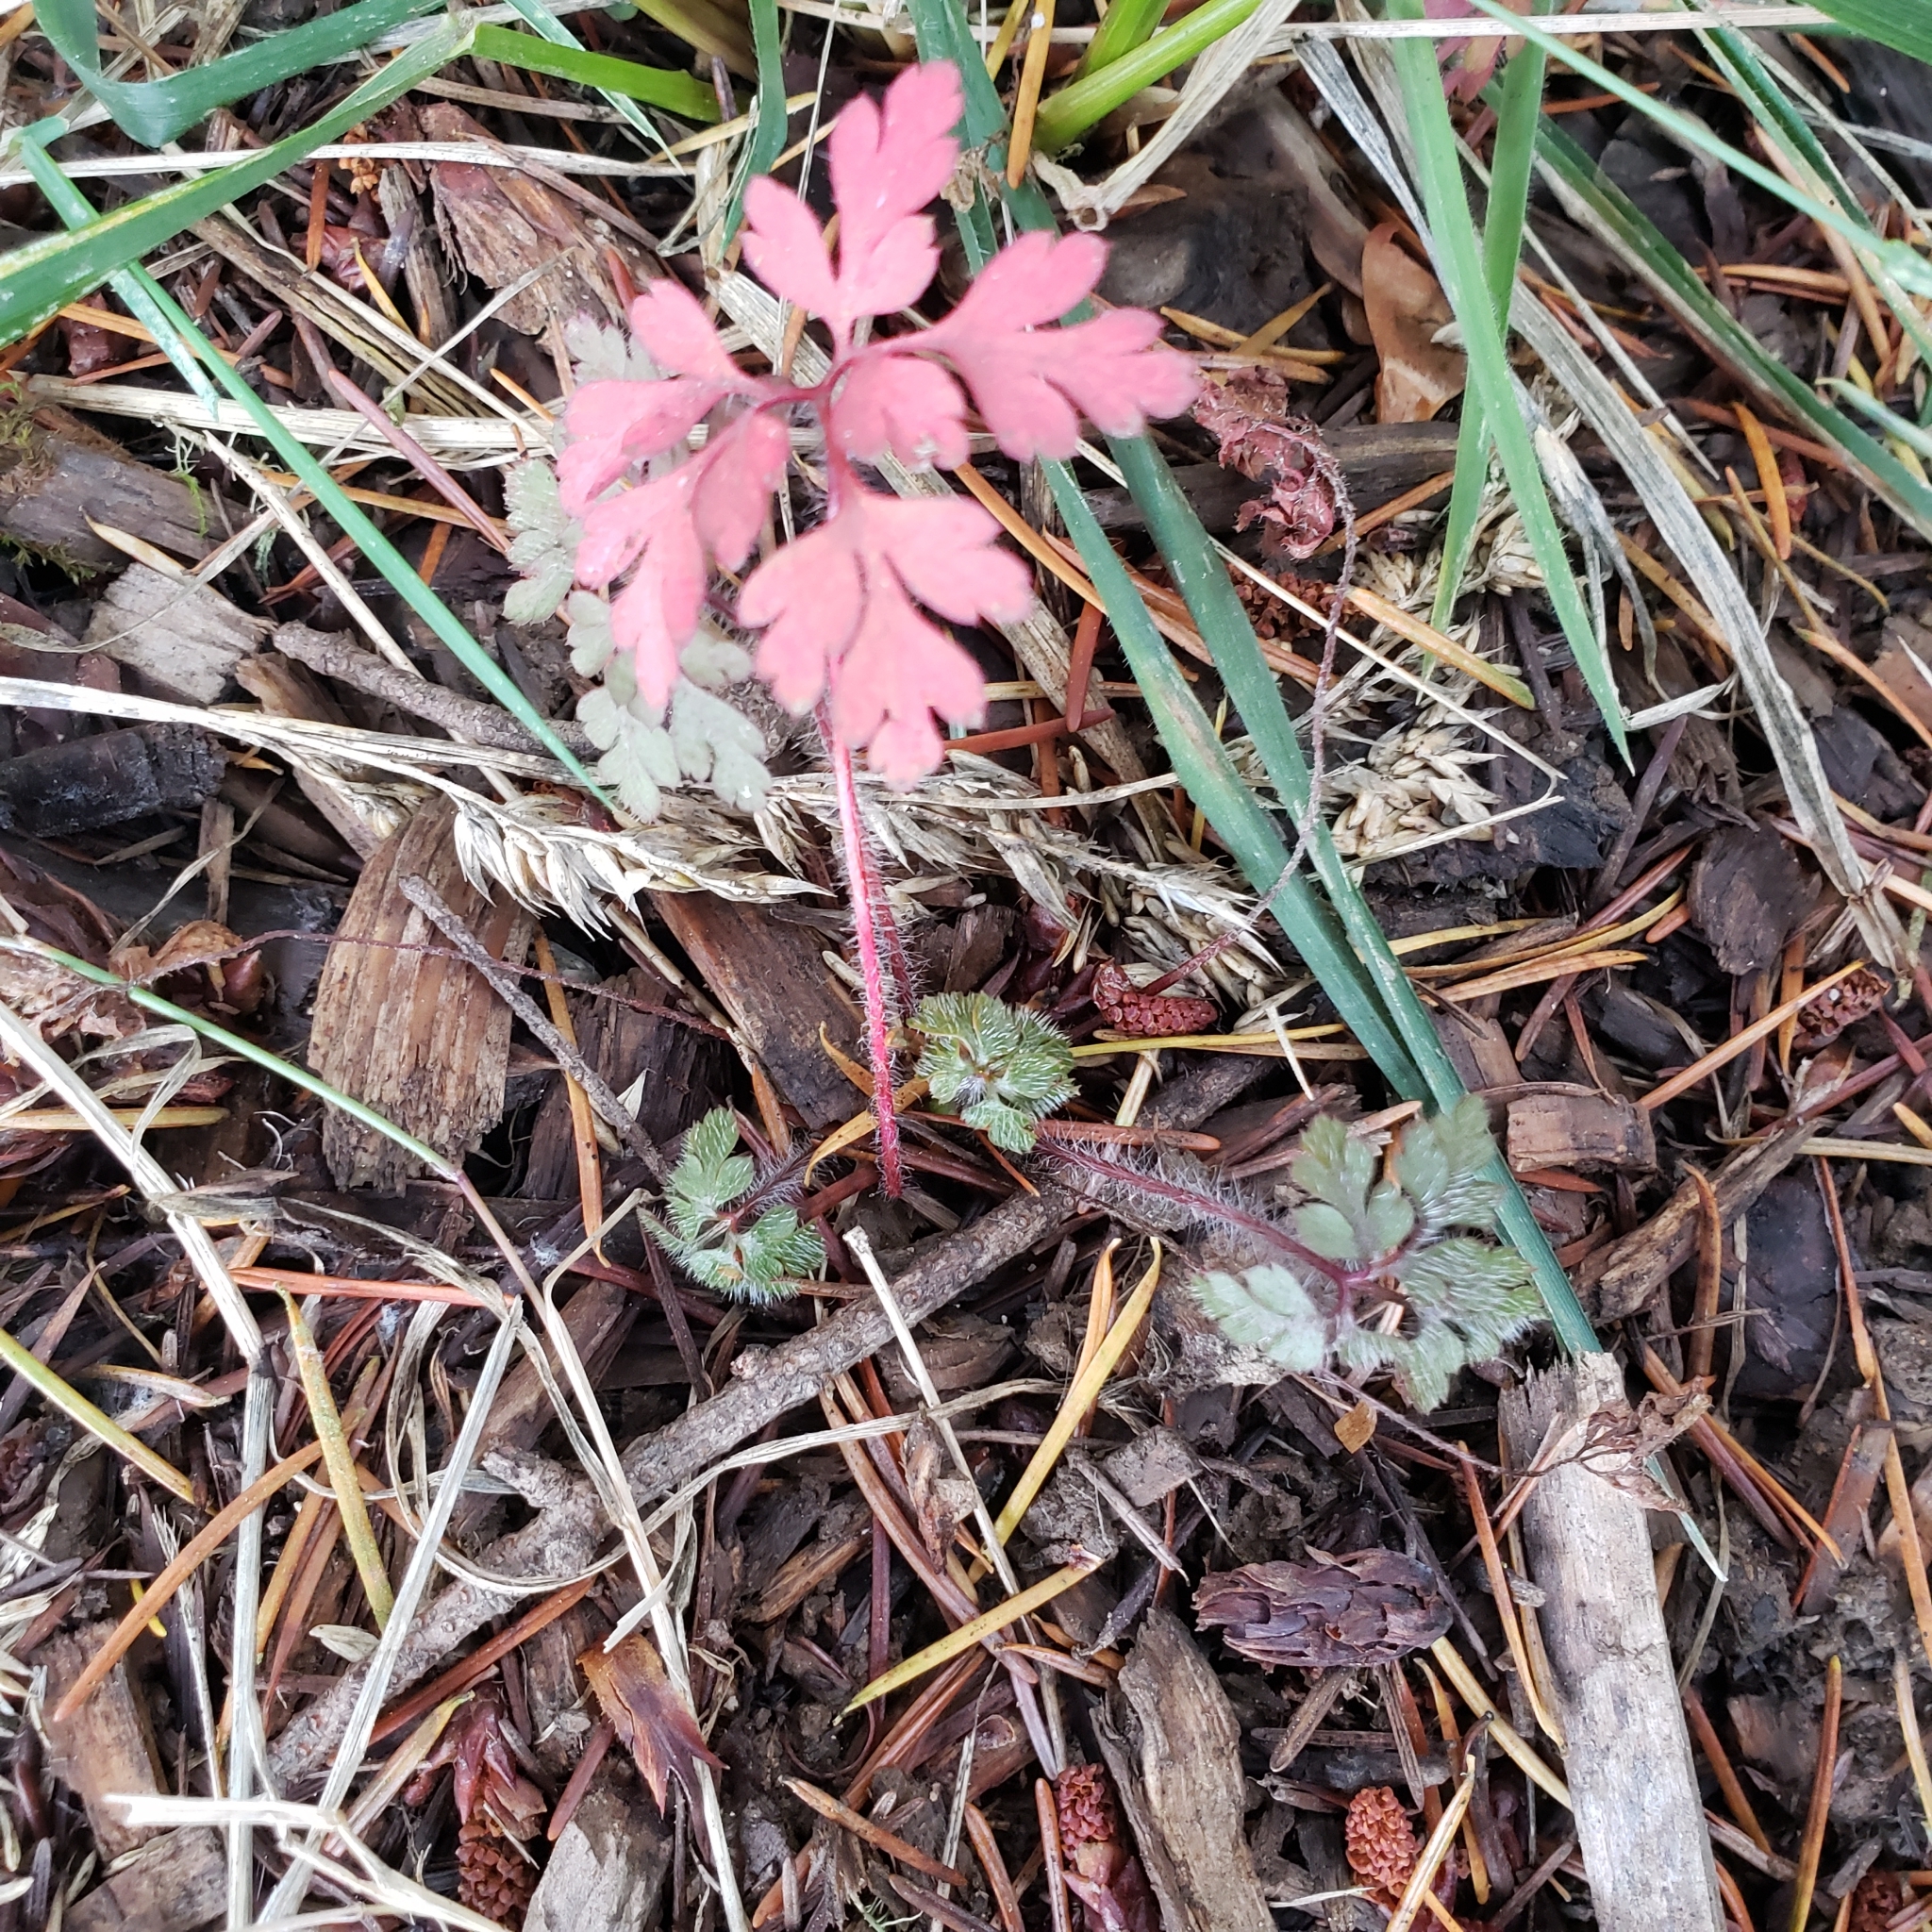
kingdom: Plantae
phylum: Tracheophyta
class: Magnoliopsida
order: Geraniales
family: Geraniaceae
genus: Geranium
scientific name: Geranium robertianum
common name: Herb-robert
